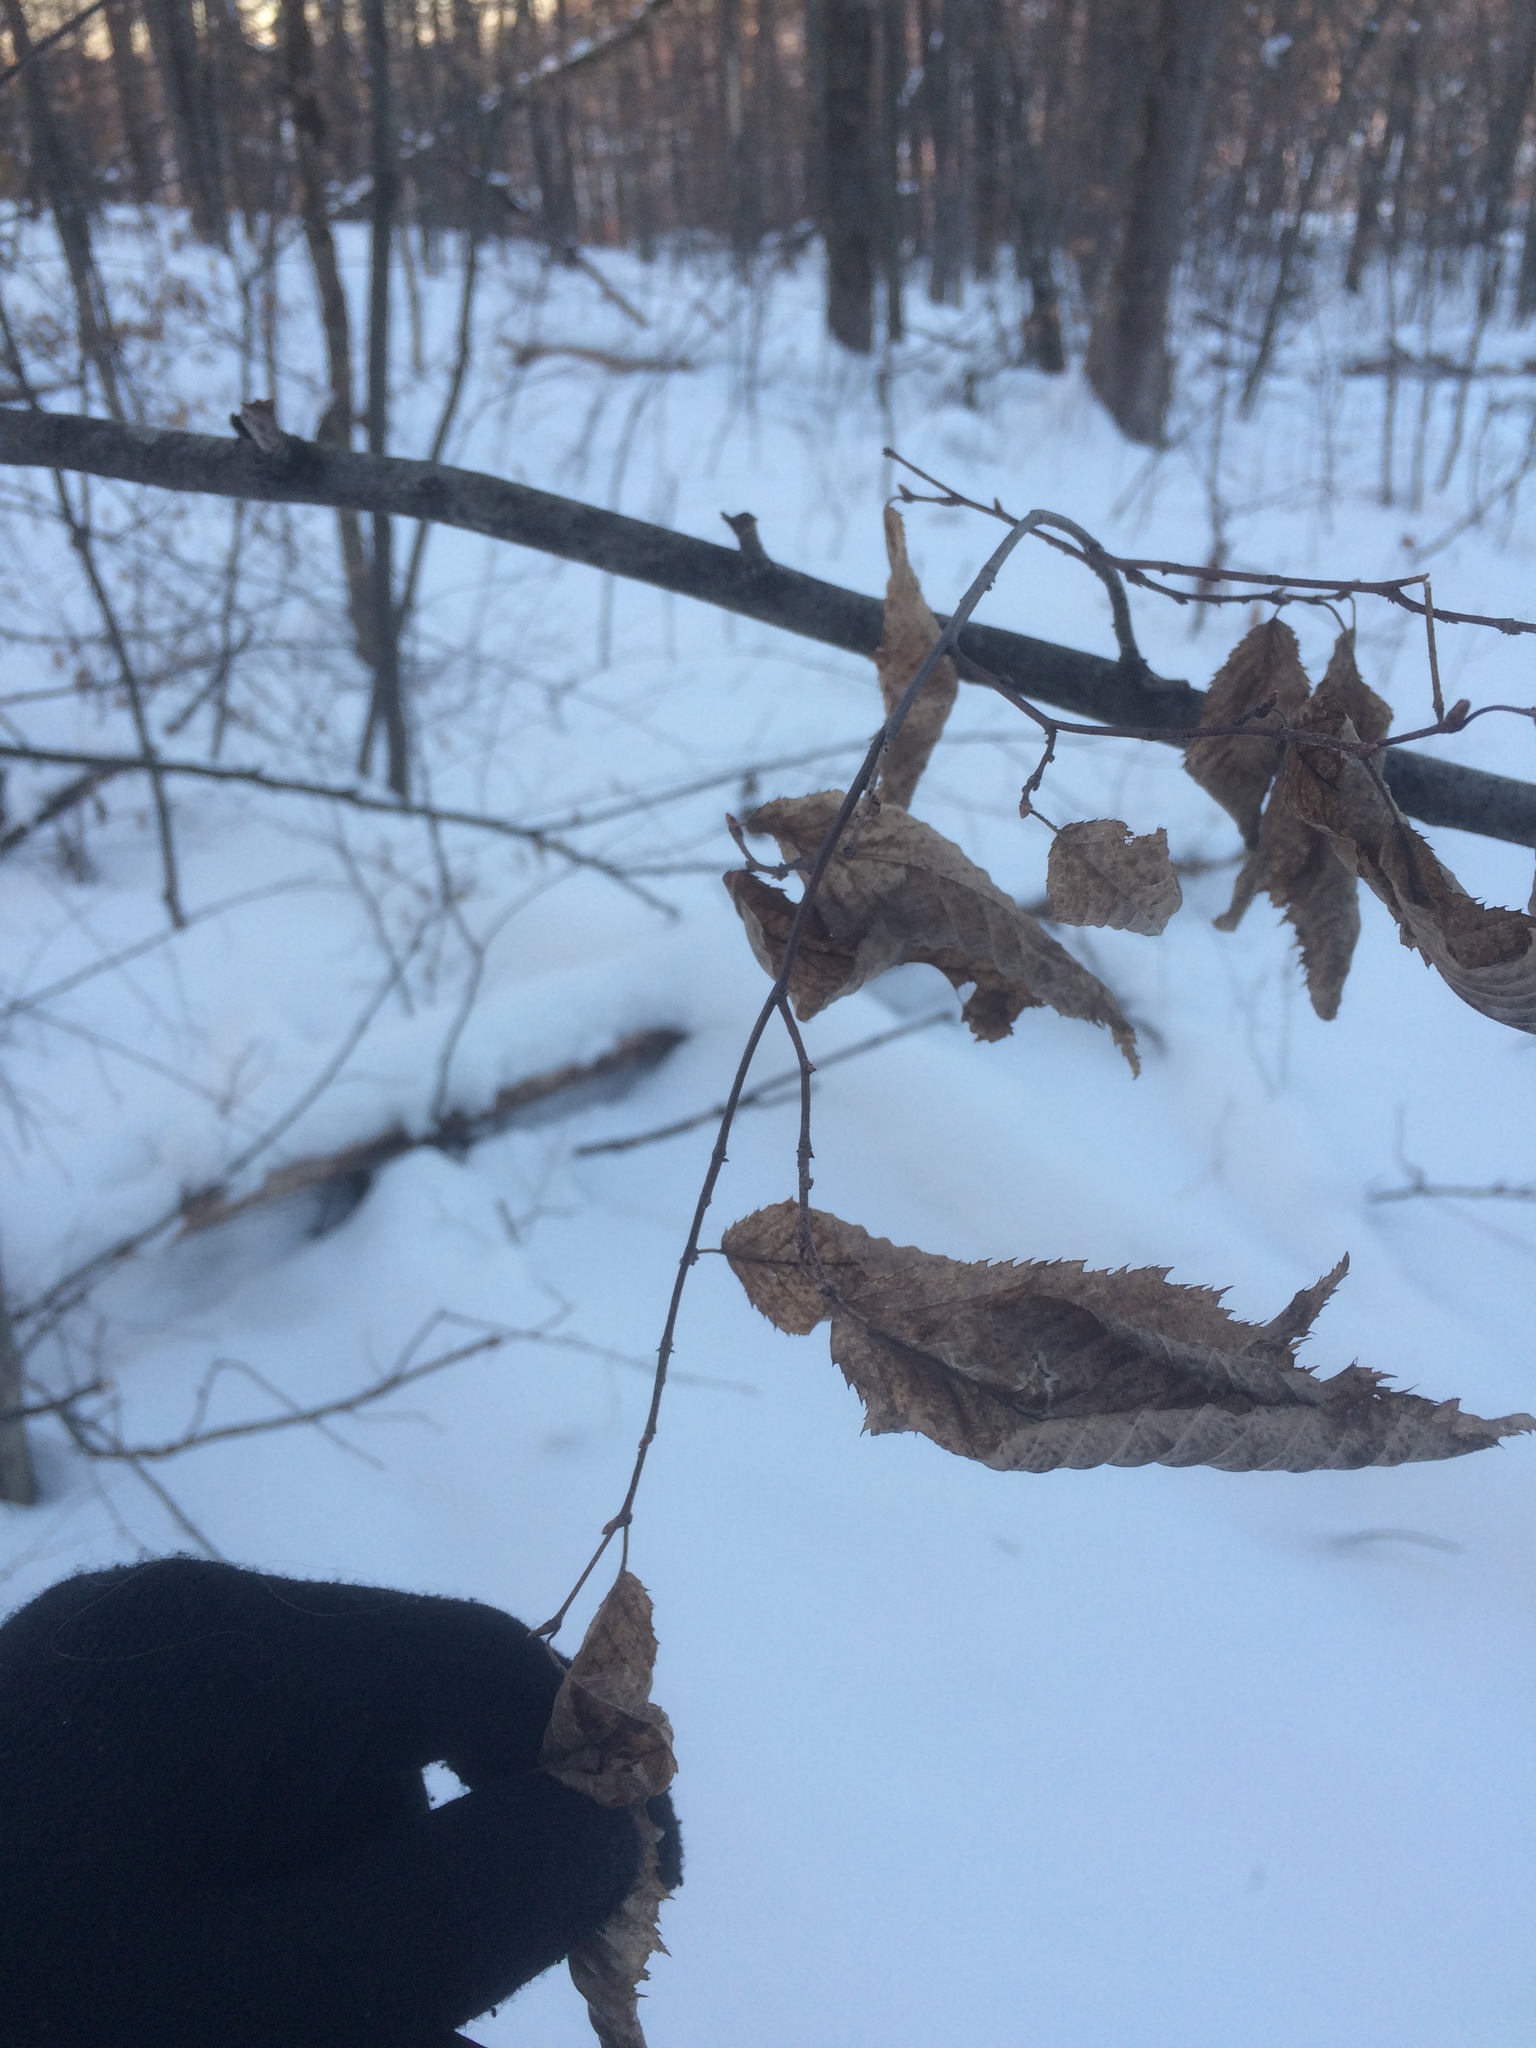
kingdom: Plantae
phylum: Tracheophyta
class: Magnoliopsida
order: Fagales
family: Betulaceae
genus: Carpinus
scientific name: Carpinus caroliniana
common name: American hornbeam
